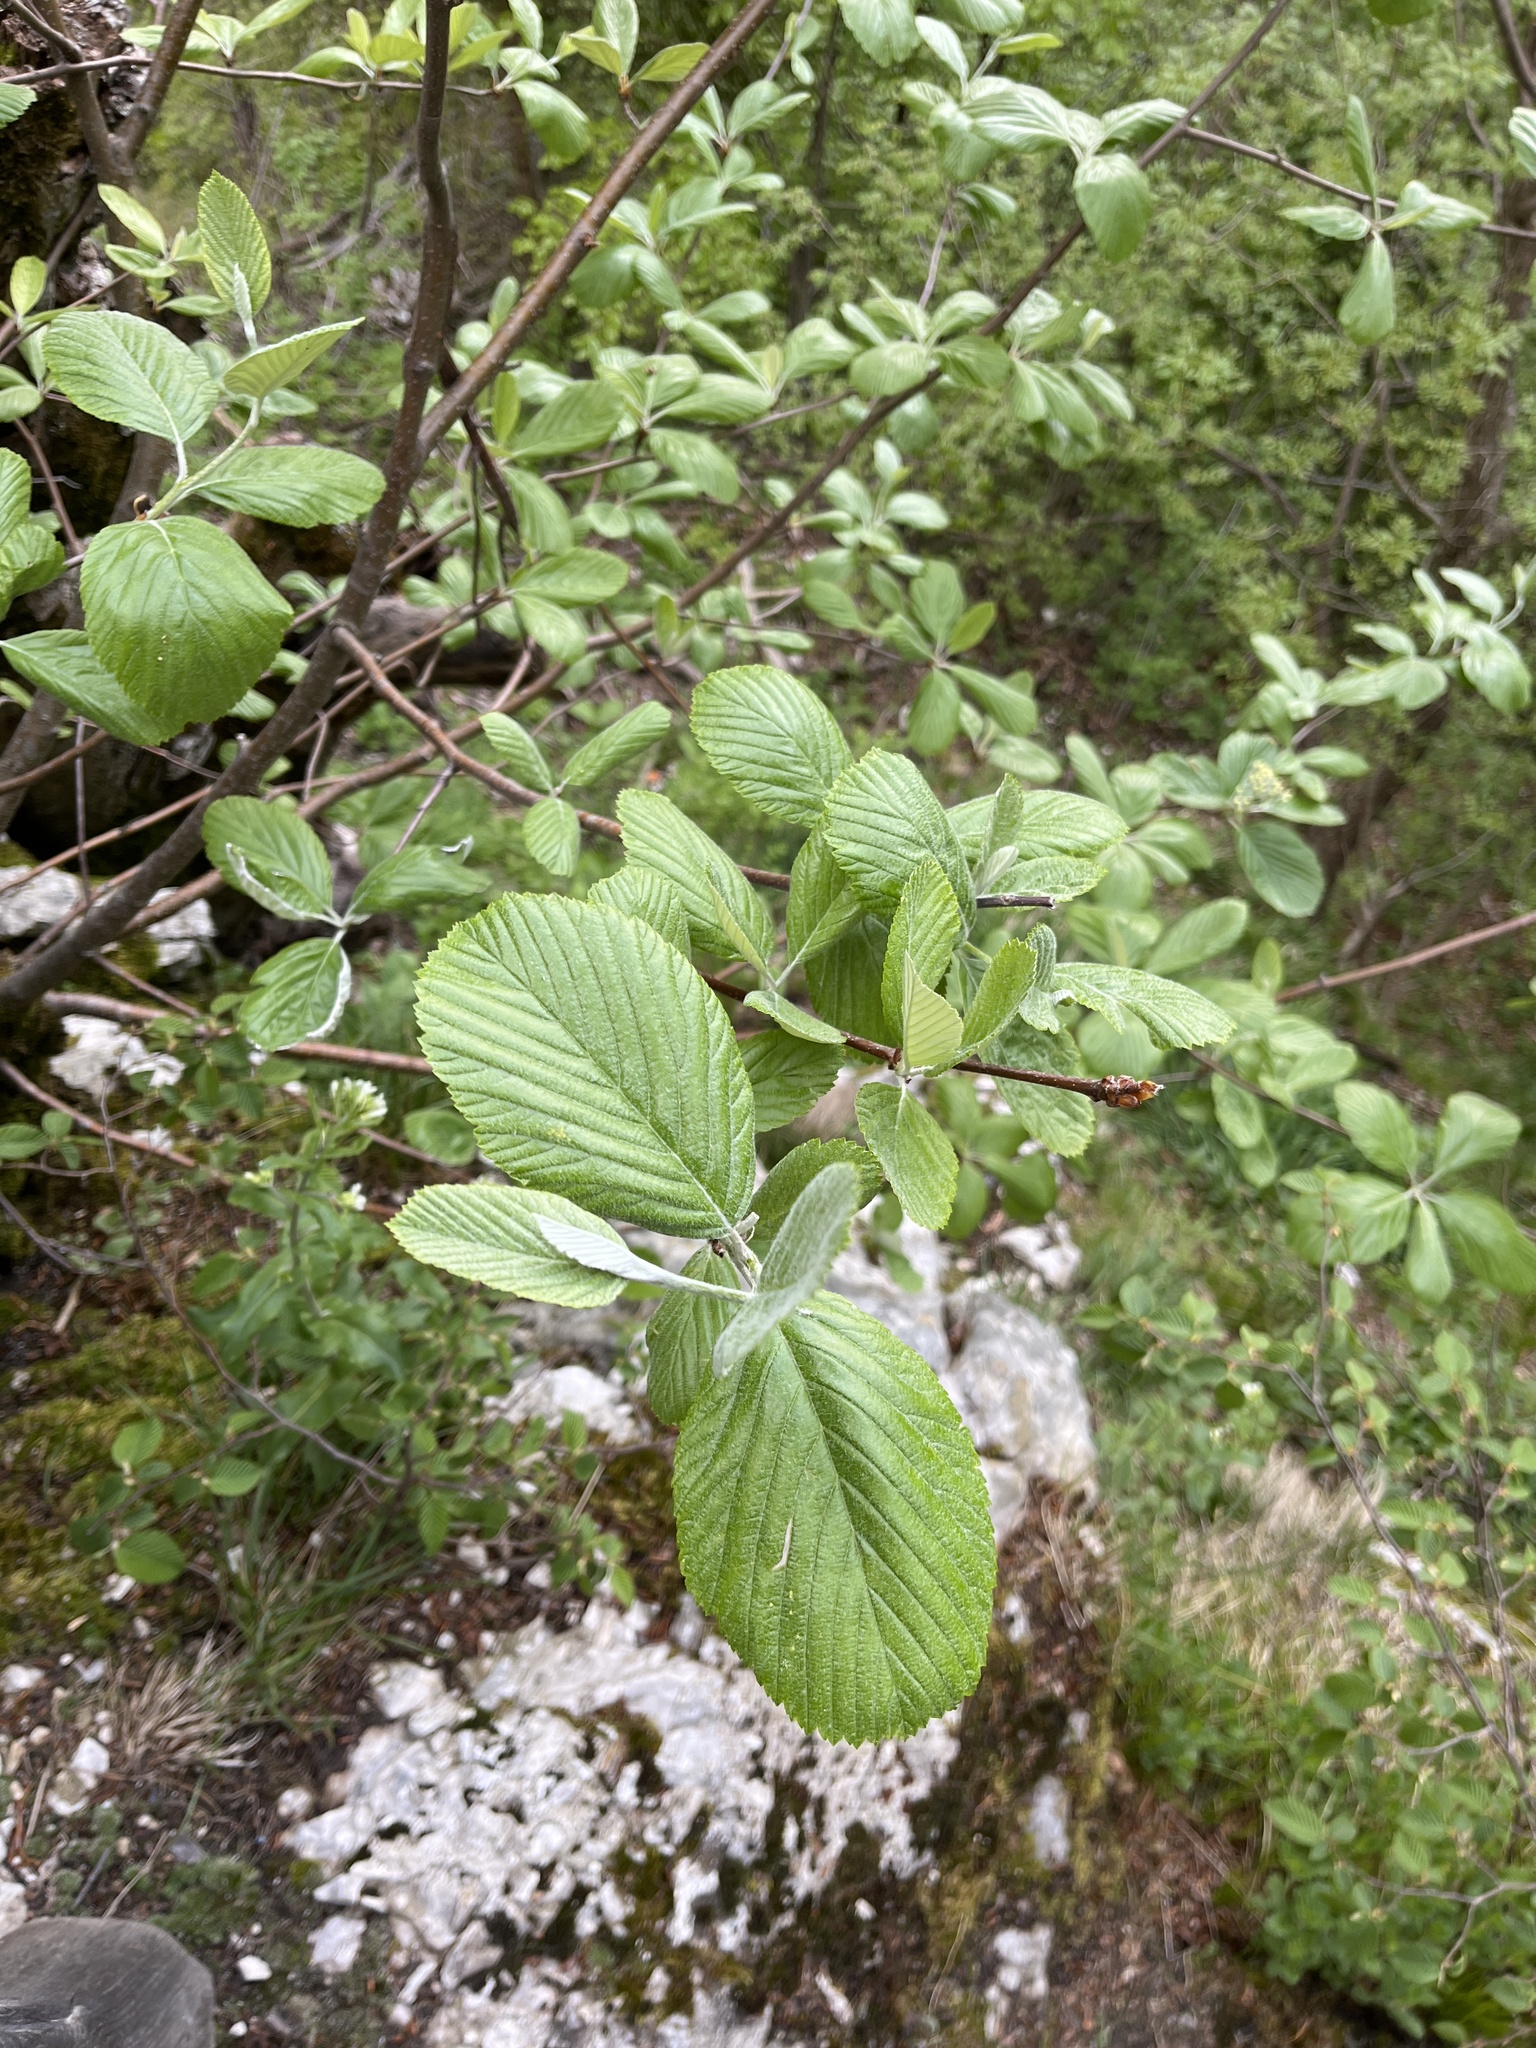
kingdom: Plantae
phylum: Tracheophyta
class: Magnoliopsida
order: Rosales
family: Rosaceae
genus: Aria
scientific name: Aria edulis
